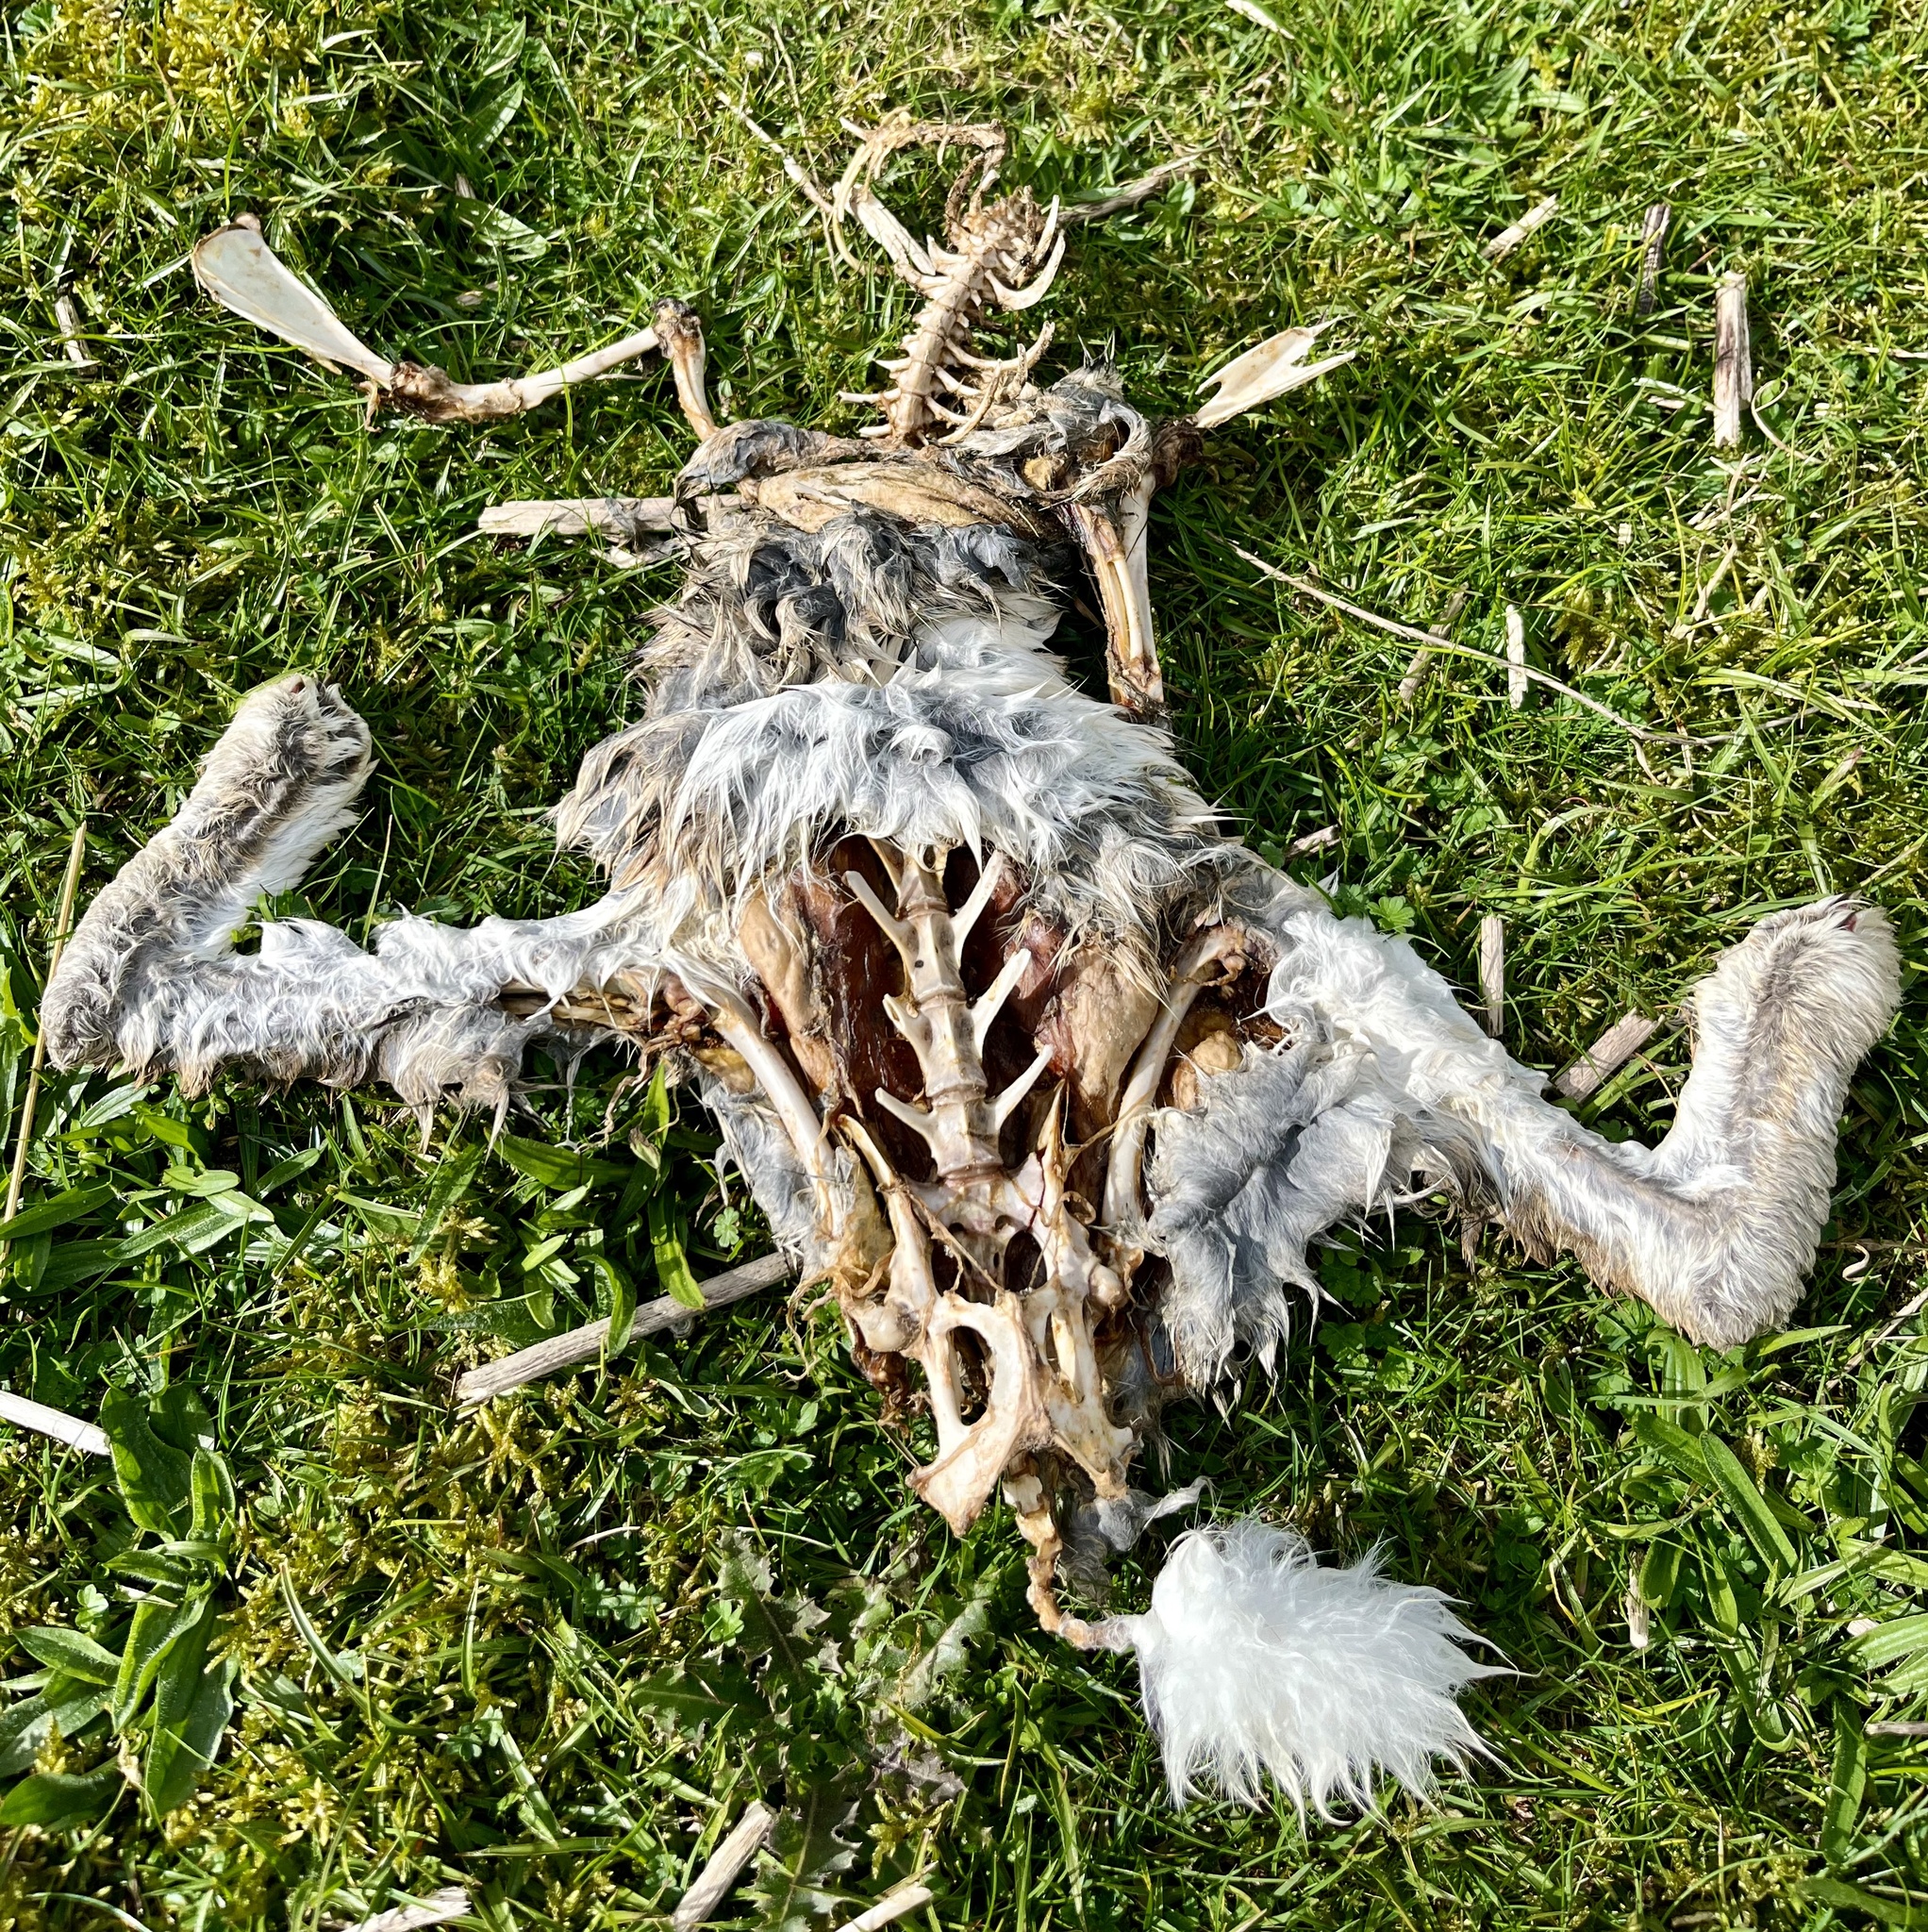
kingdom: Animalia
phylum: Chordata
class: Mammalia
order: Lagomorpha
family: Leporidae
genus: Oryctolagus
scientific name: Oryctolagus cuniculus
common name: European rabbit
